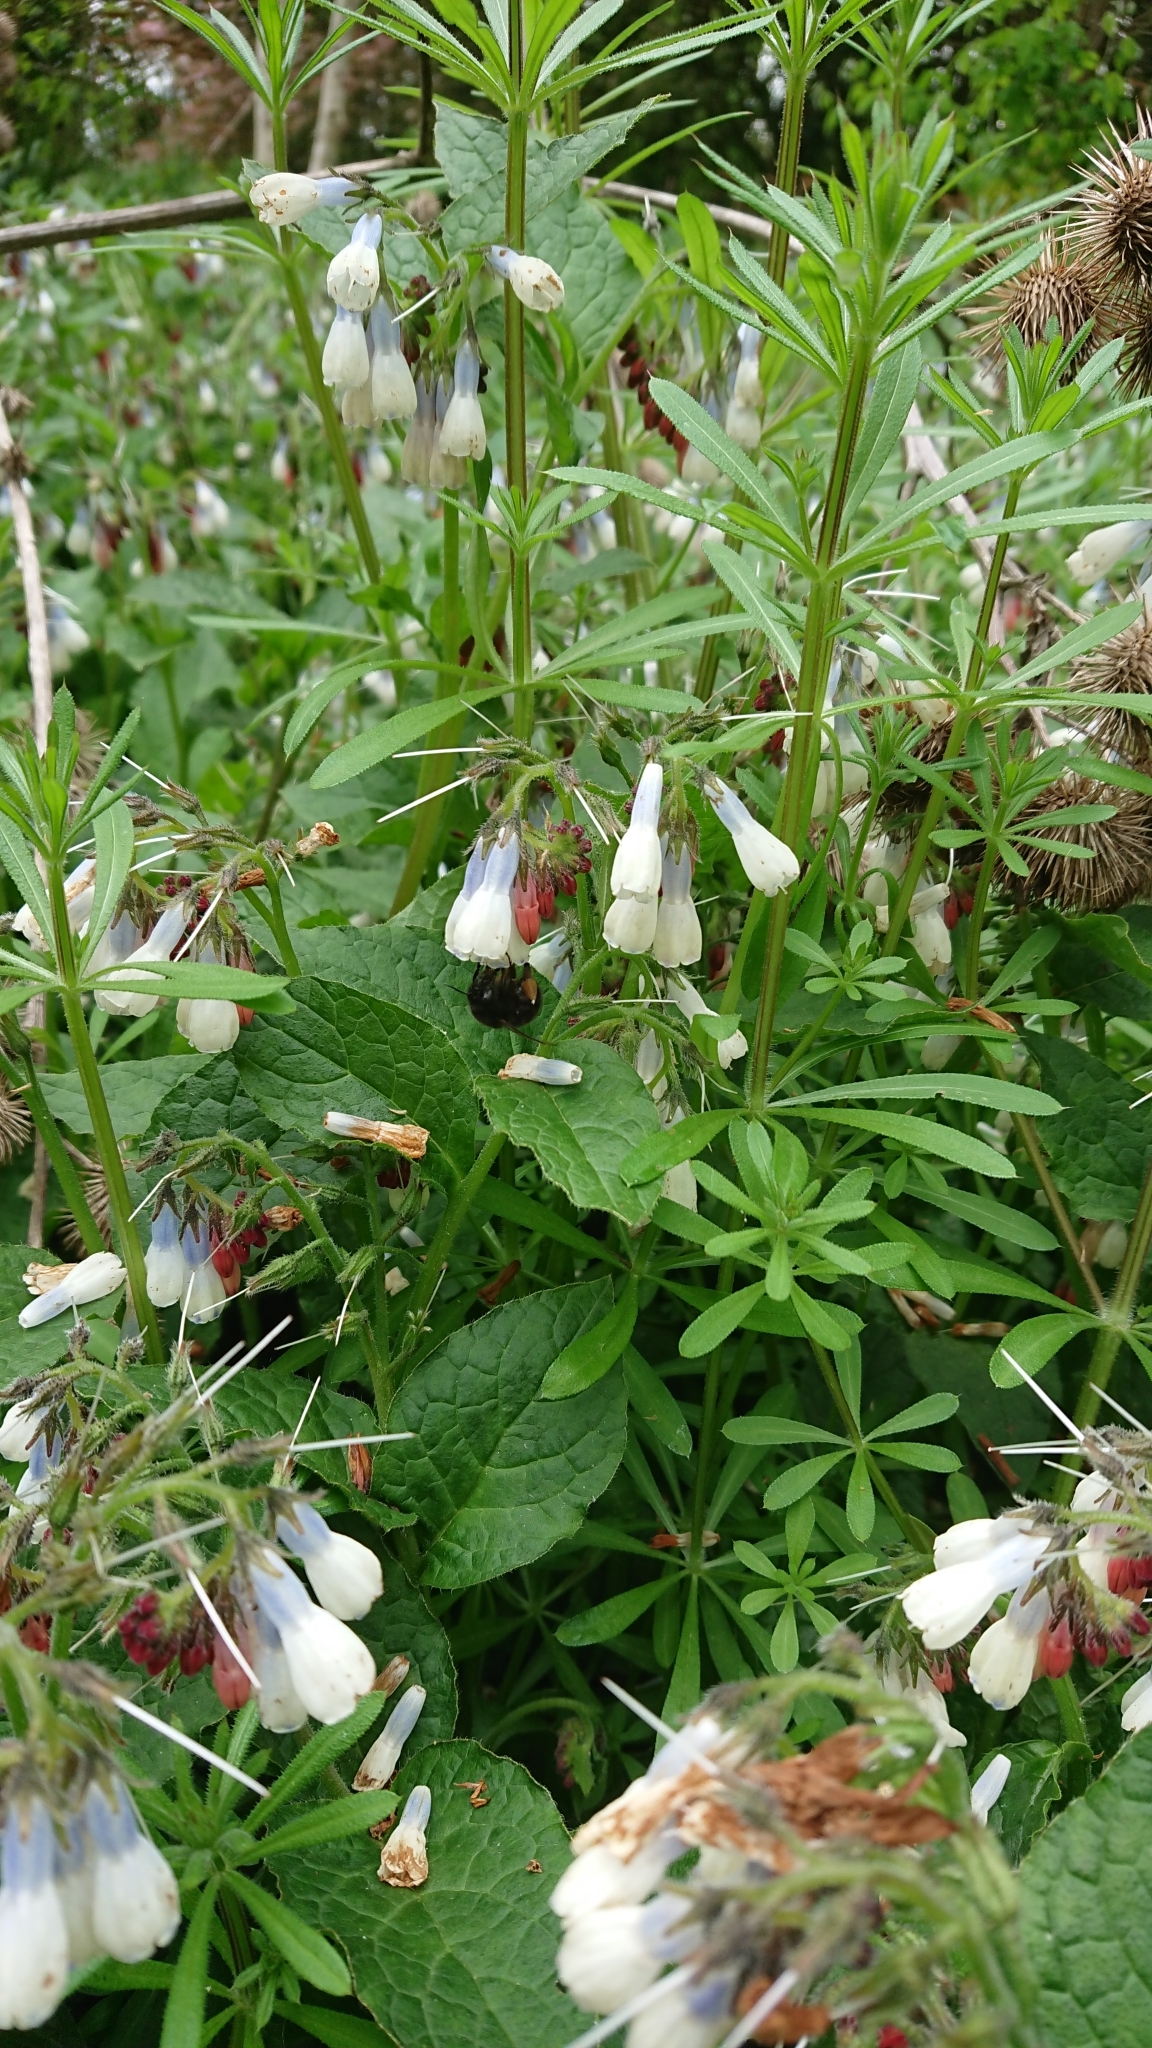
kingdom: Animalia
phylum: Arthropoda
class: Insecta
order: Hymenoptera
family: Apidae
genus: Anthophora
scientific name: Anthophora plumipes
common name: Hairy-footed flower bee
